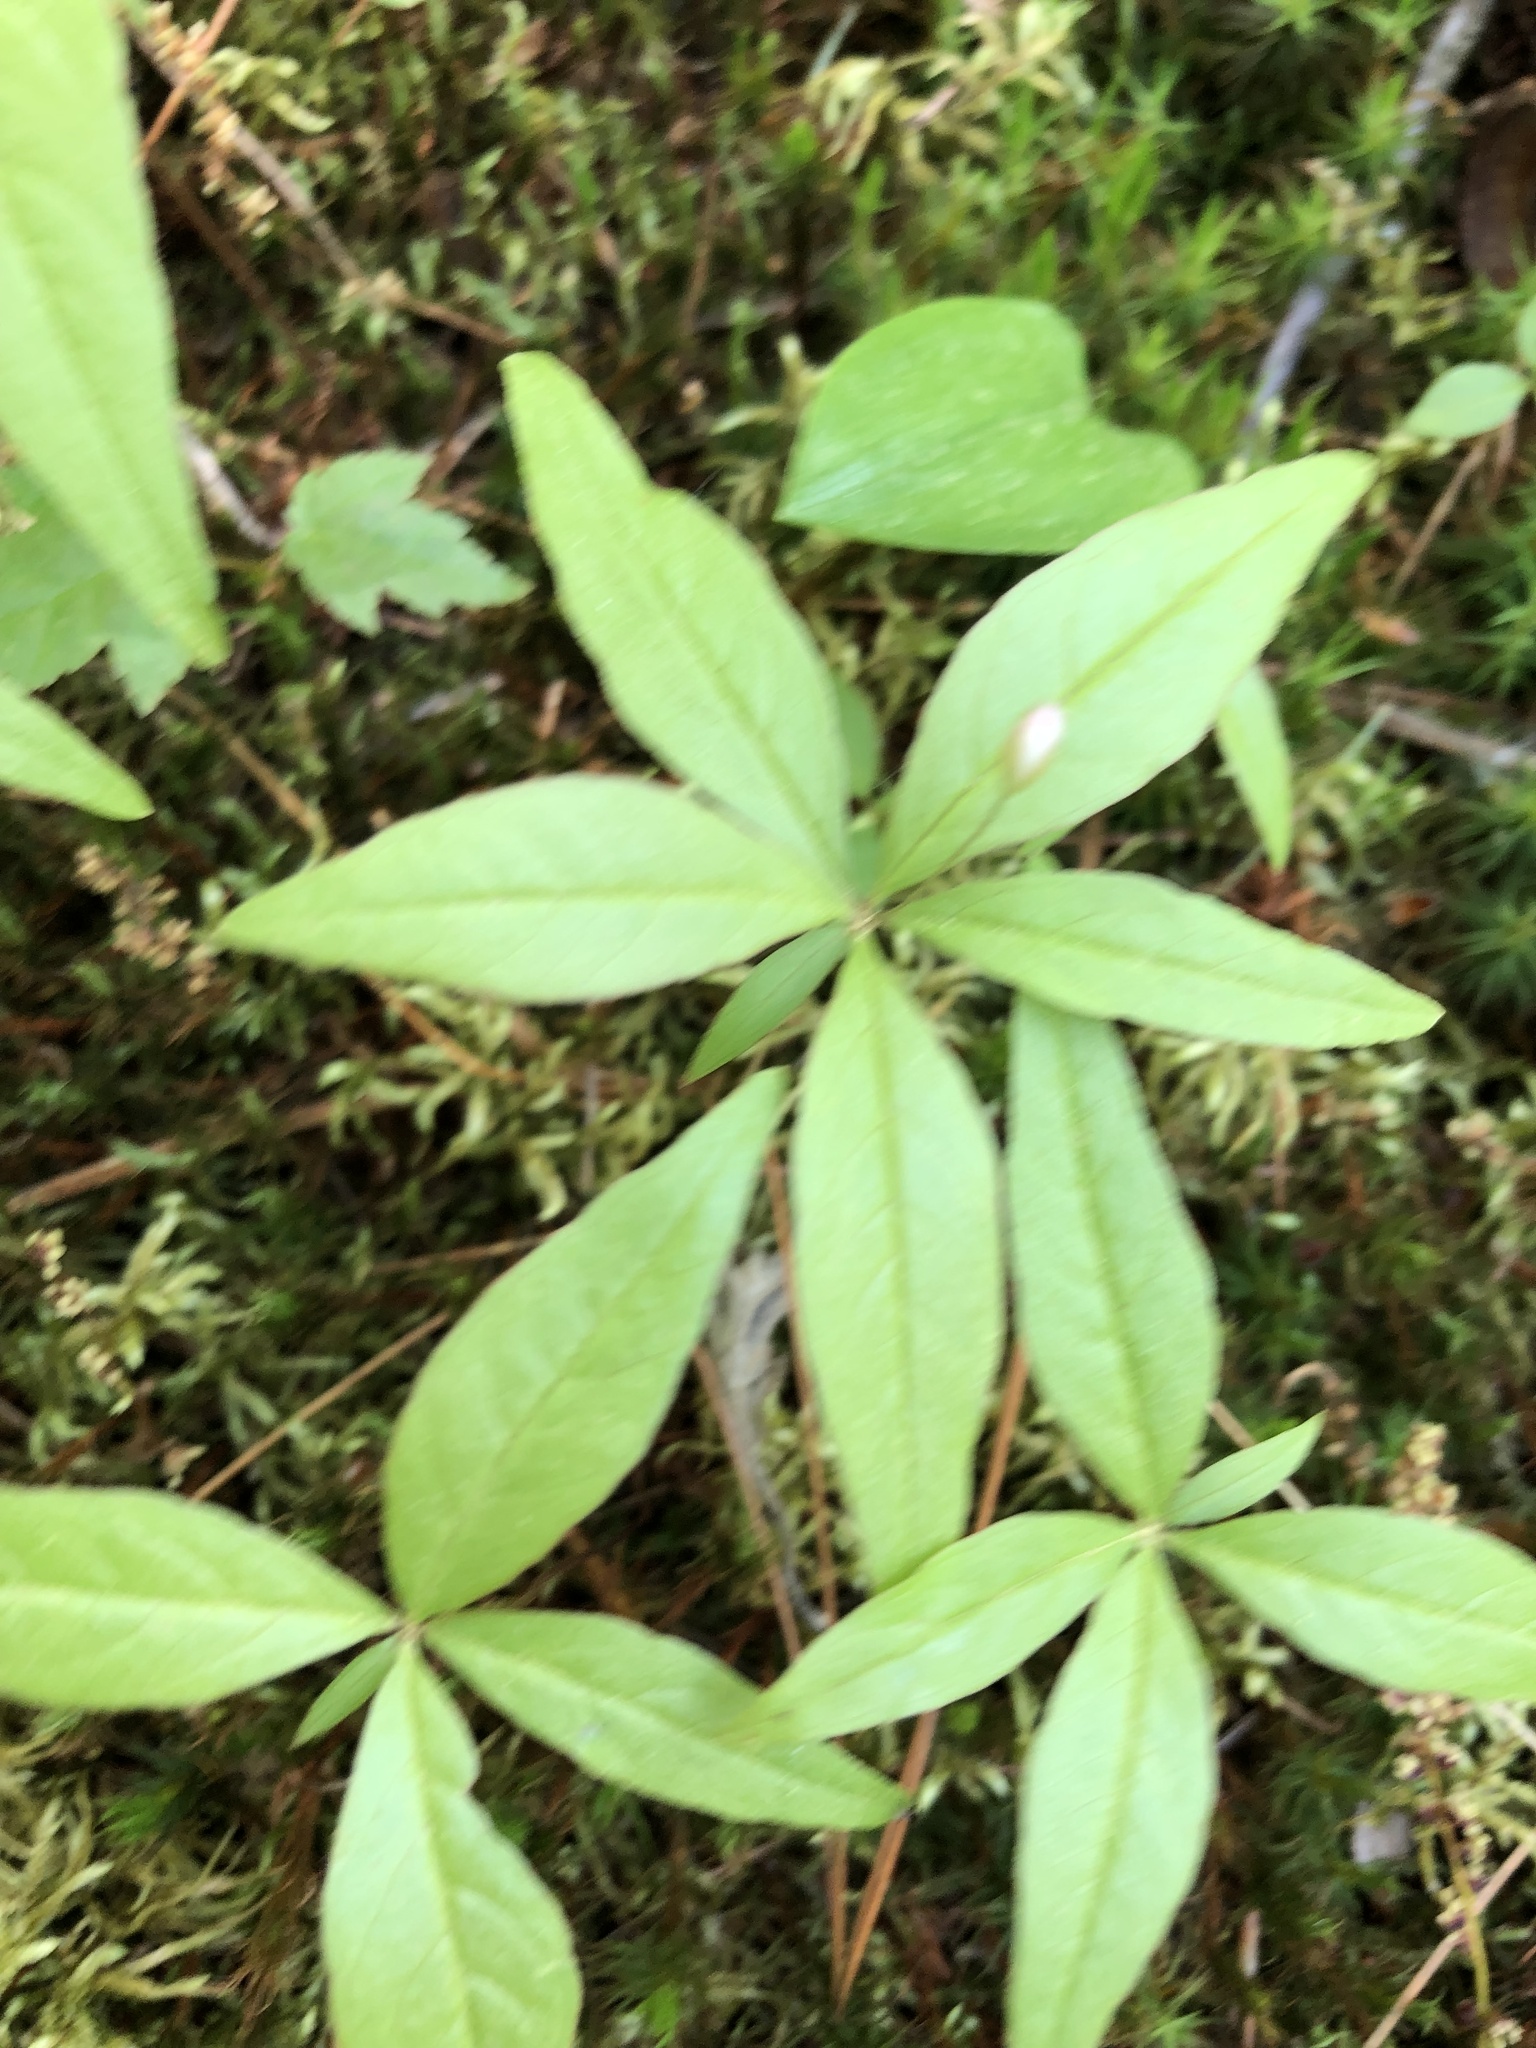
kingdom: Plantae
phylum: Tracheophyta
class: Magnoliopsida
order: Ericales
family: Primulaceae
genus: Lysimachia
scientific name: Lysimachia borealis
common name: American starflower
